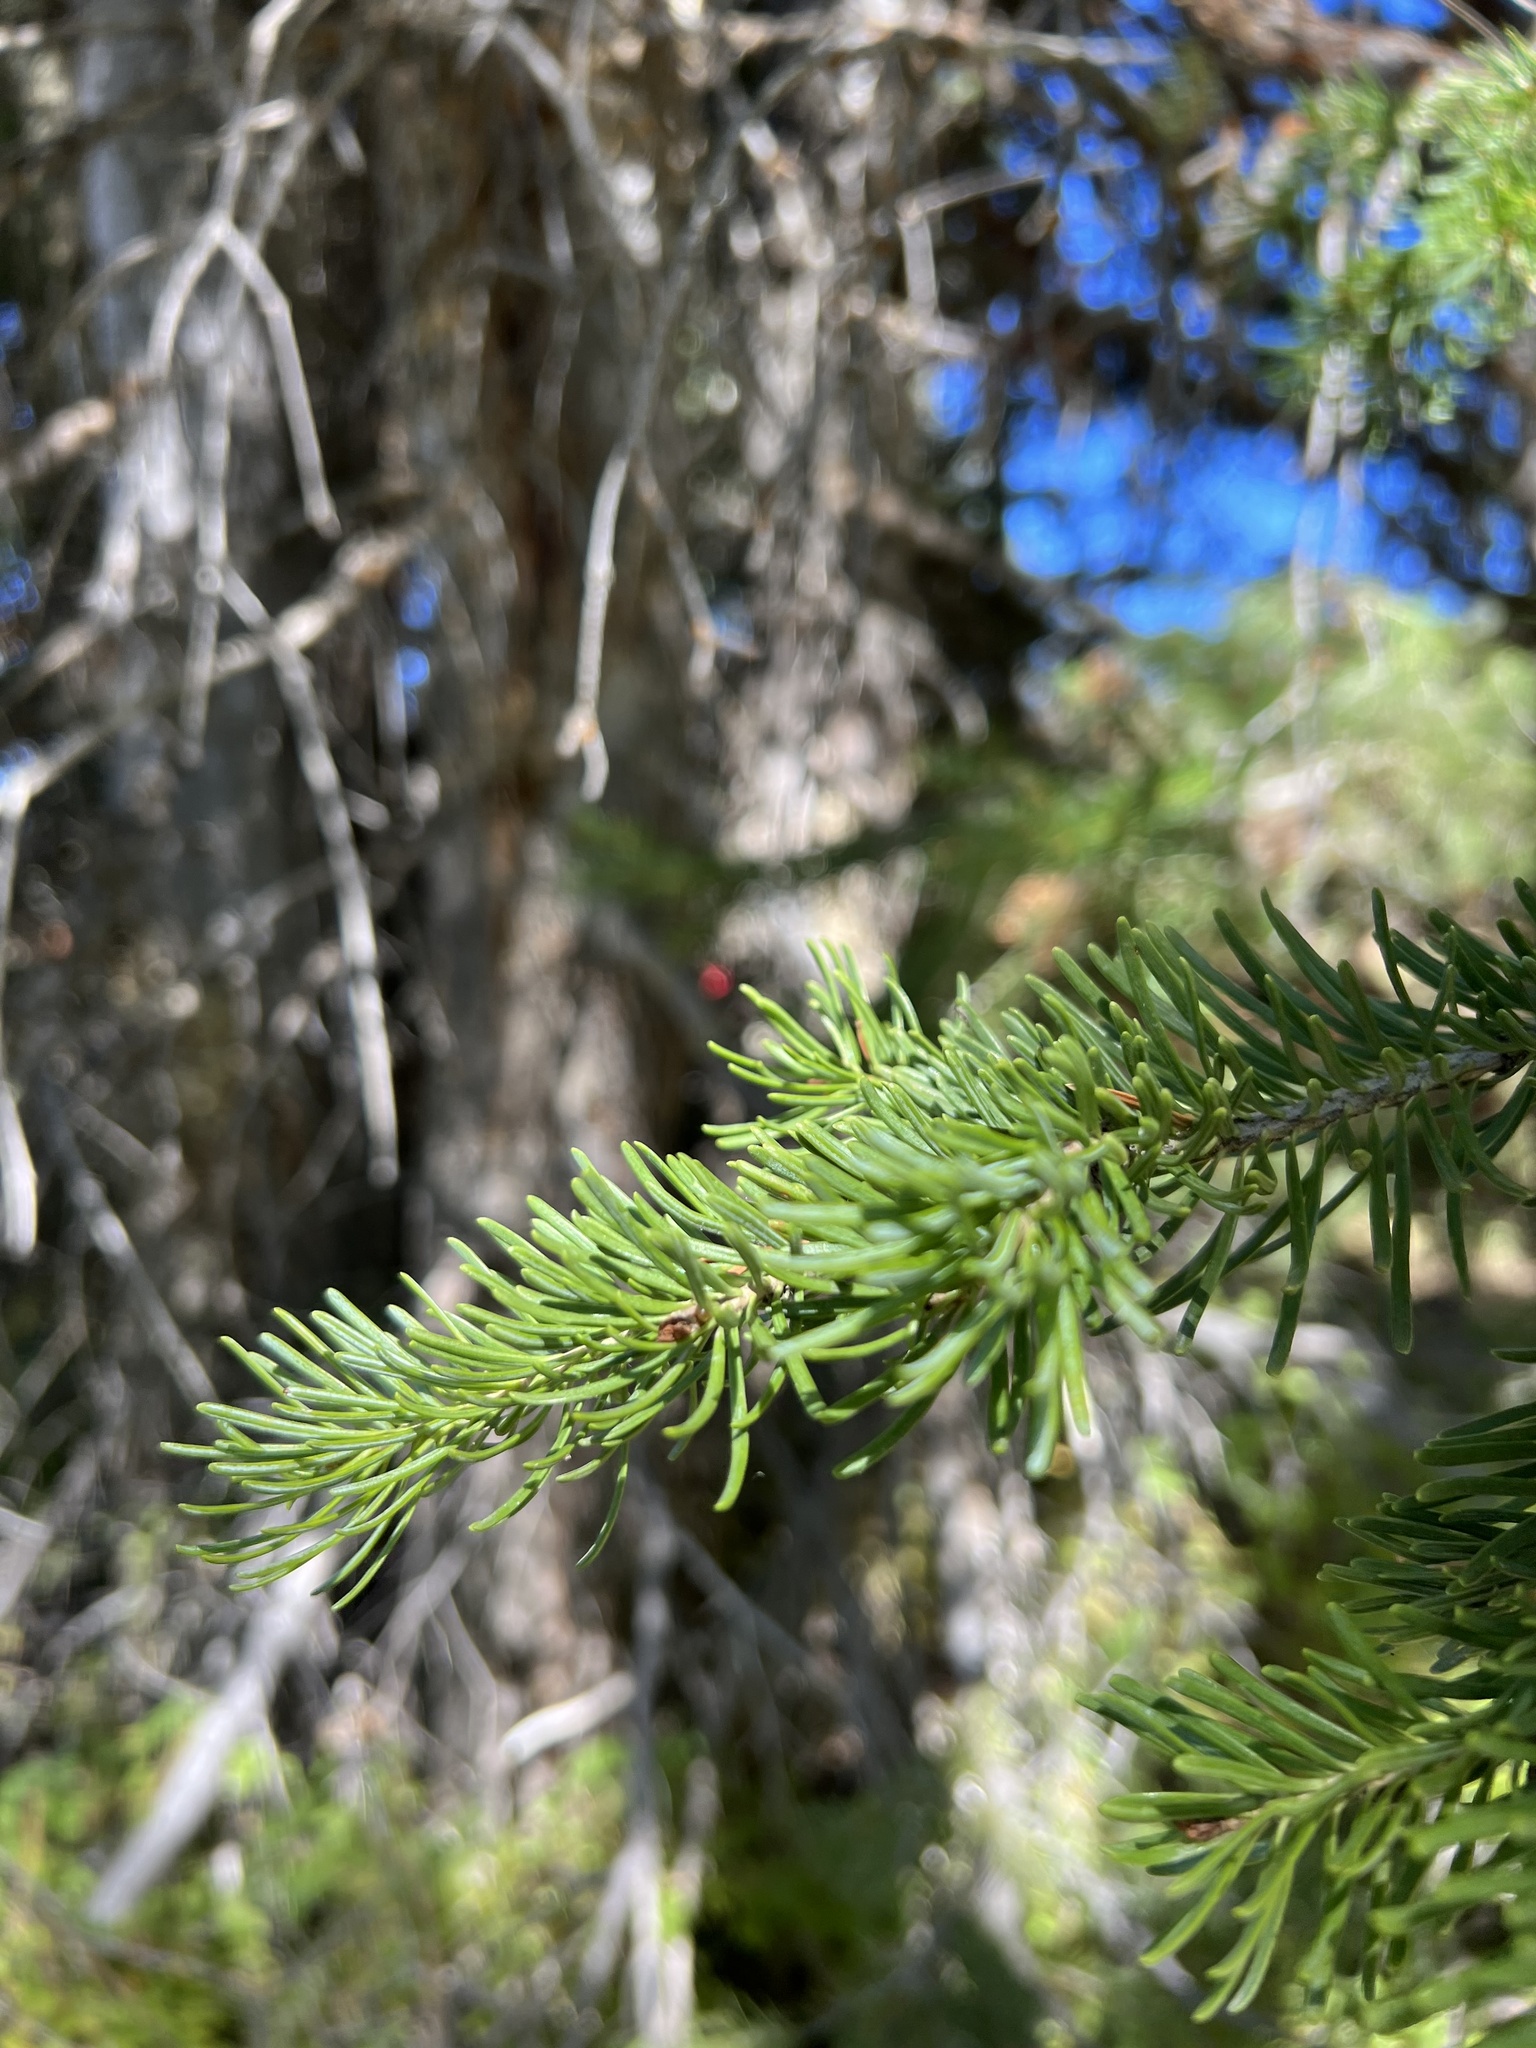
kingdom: Plantae
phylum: Tracheophyta
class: Pinopsida
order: Pinales
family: Pinaceae
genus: Abies
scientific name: Abies lasiocarpa
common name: Subalpine fir
